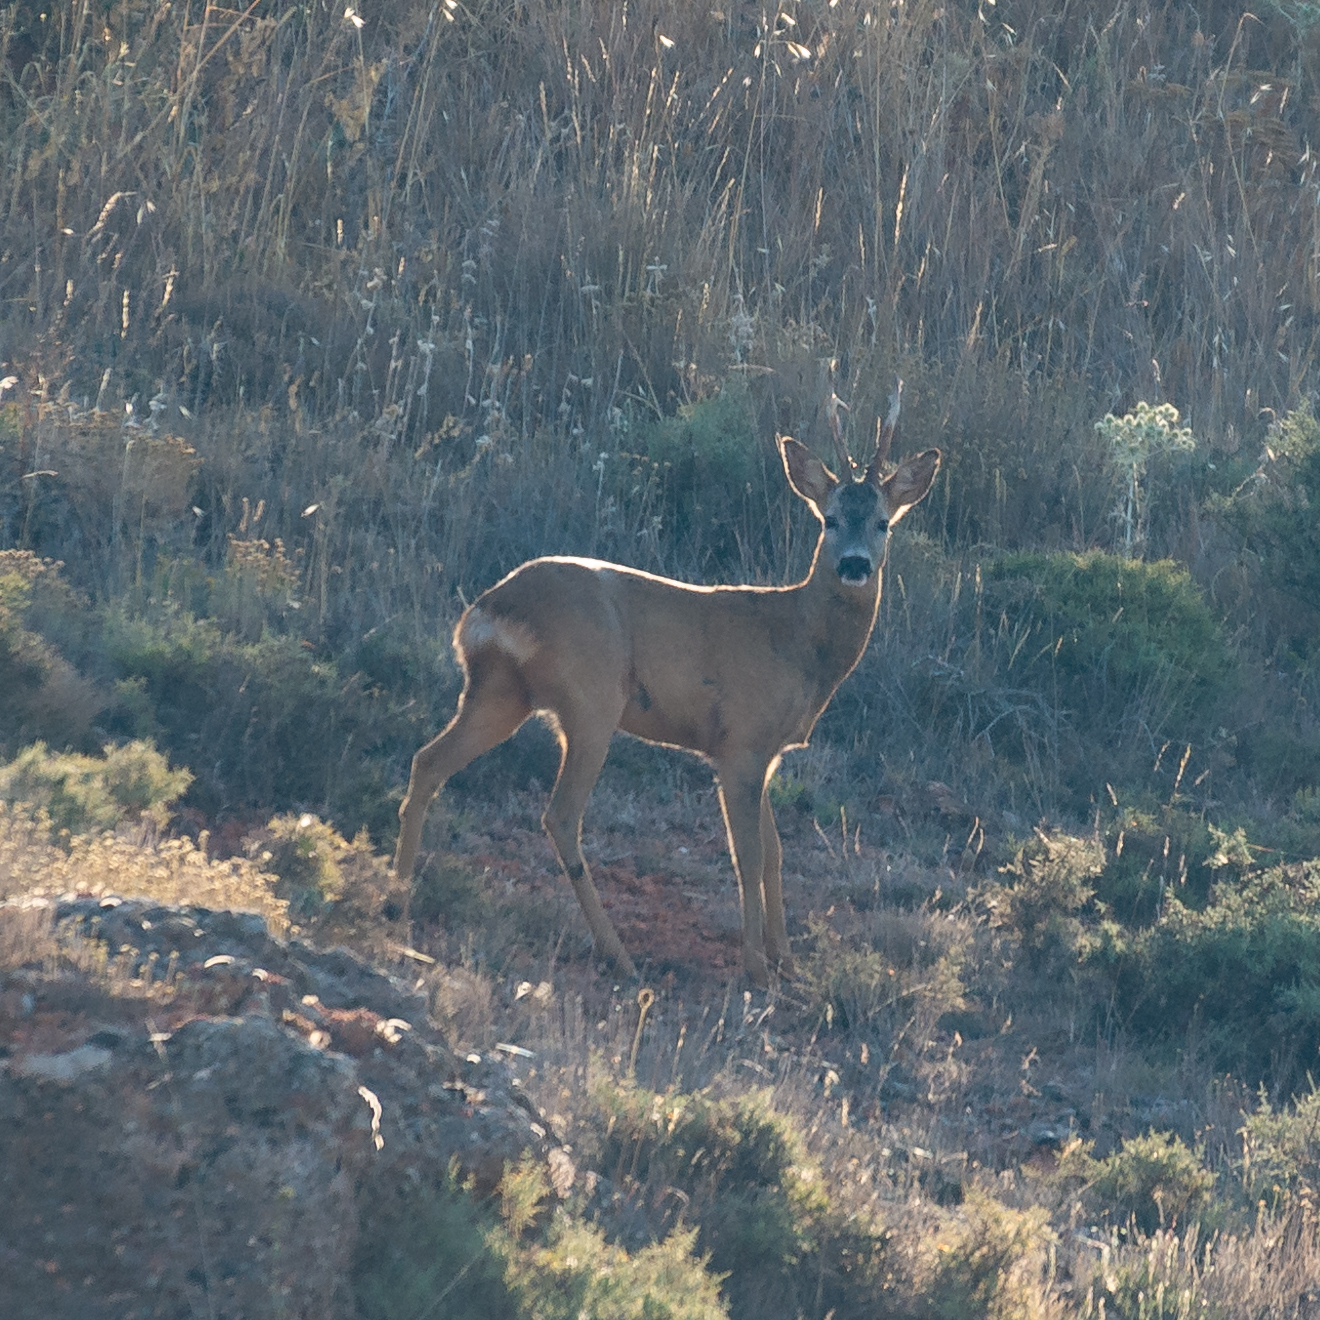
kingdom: Animalia
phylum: Chordata
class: Mammalia
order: Artiodactyla
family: Cervidae
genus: Capreolus
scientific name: Capreolus capreolus
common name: Western roe deer
